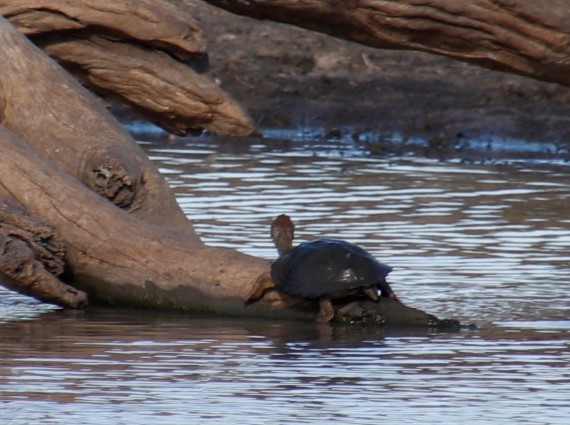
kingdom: Animalia
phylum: Chordata
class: Testudines
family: Pelomedusidae
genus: Pelusios
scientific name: Pelusios sinuatus
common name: Serrated hinged terrapin
